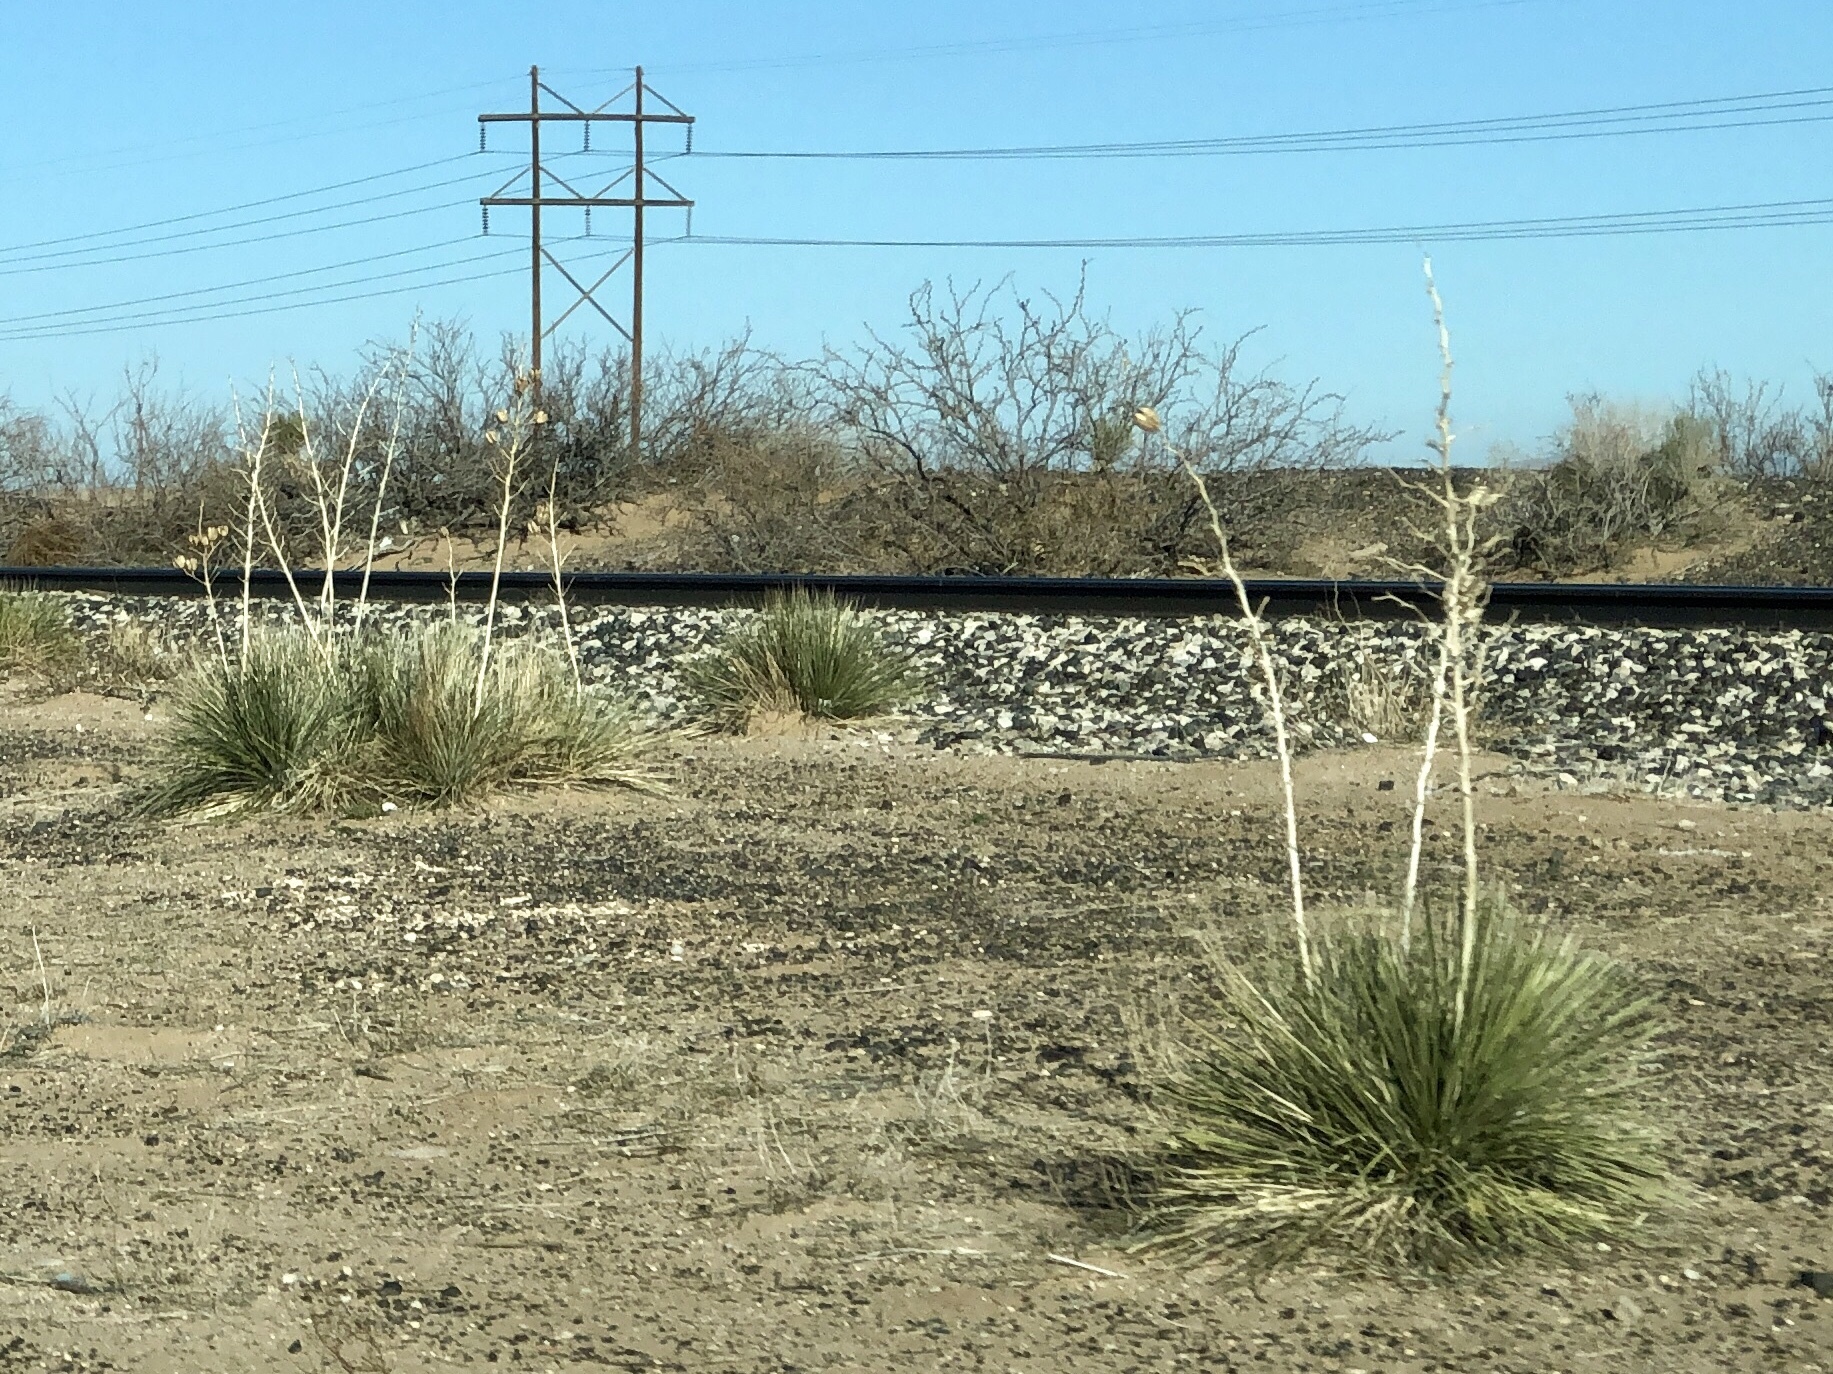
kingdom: Plantae
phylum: Tracheophyta
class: Liliopsida
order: Asparagales
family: Asparagaceae
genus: Yucca
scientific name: Yucca elata
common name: Palmella
